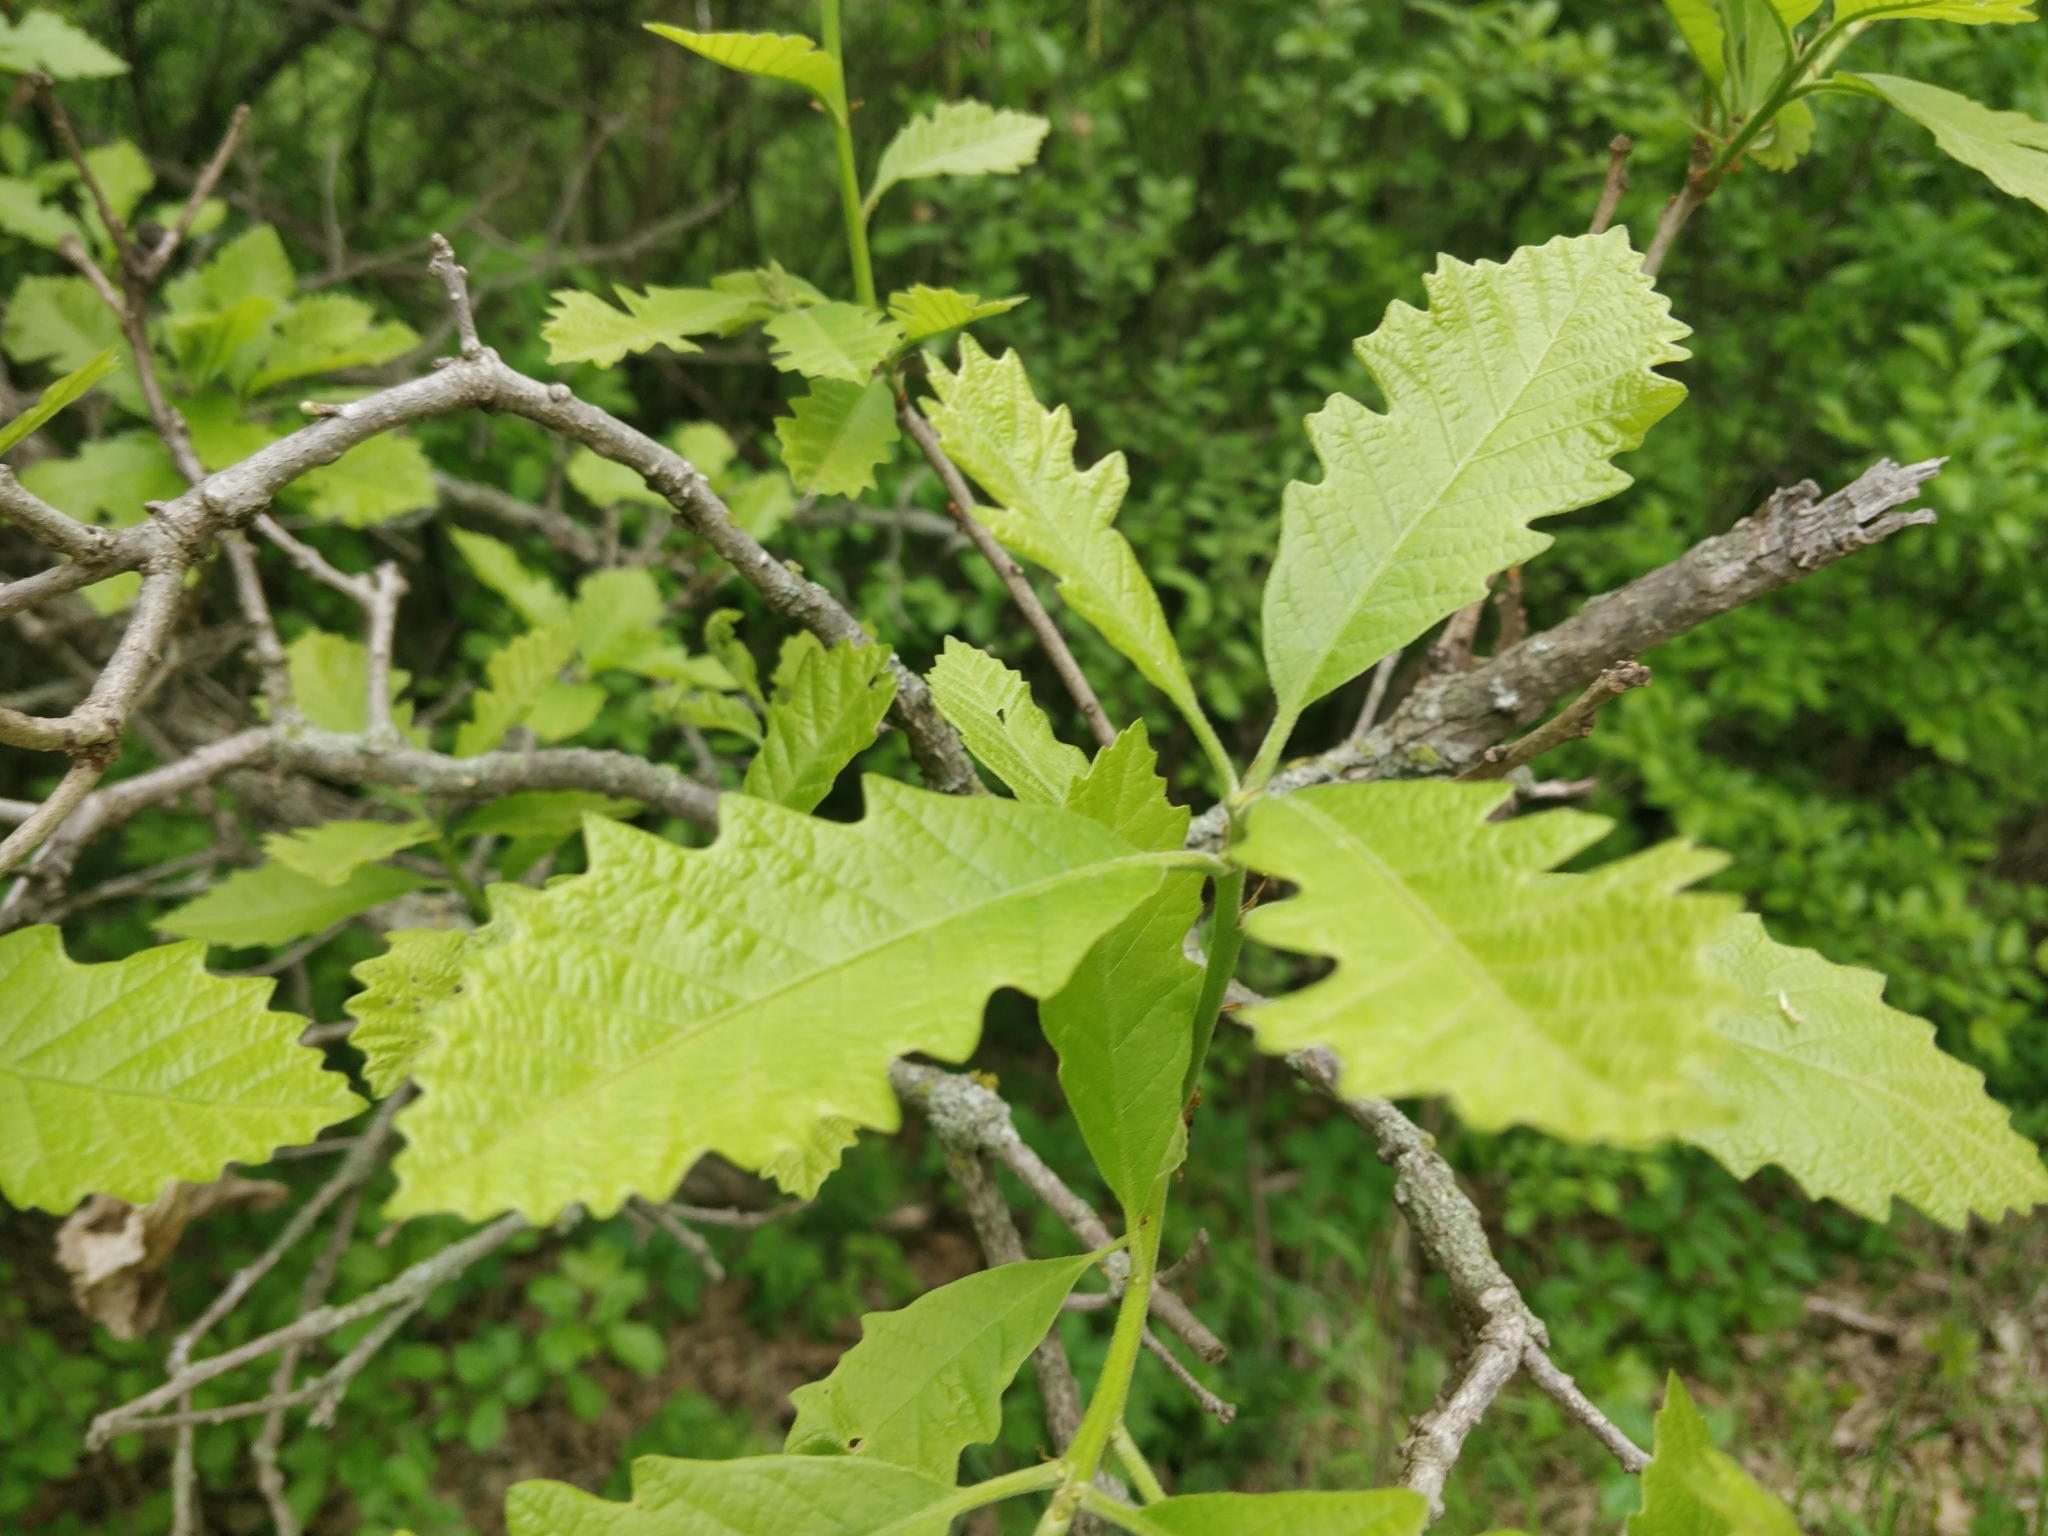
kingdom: Plantae
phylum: Tracheophyta
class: Magnoliopsida
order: Fagales
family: Fagaceae
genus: Quercus
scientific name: Quercus macrocarpa
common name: Bur oak
